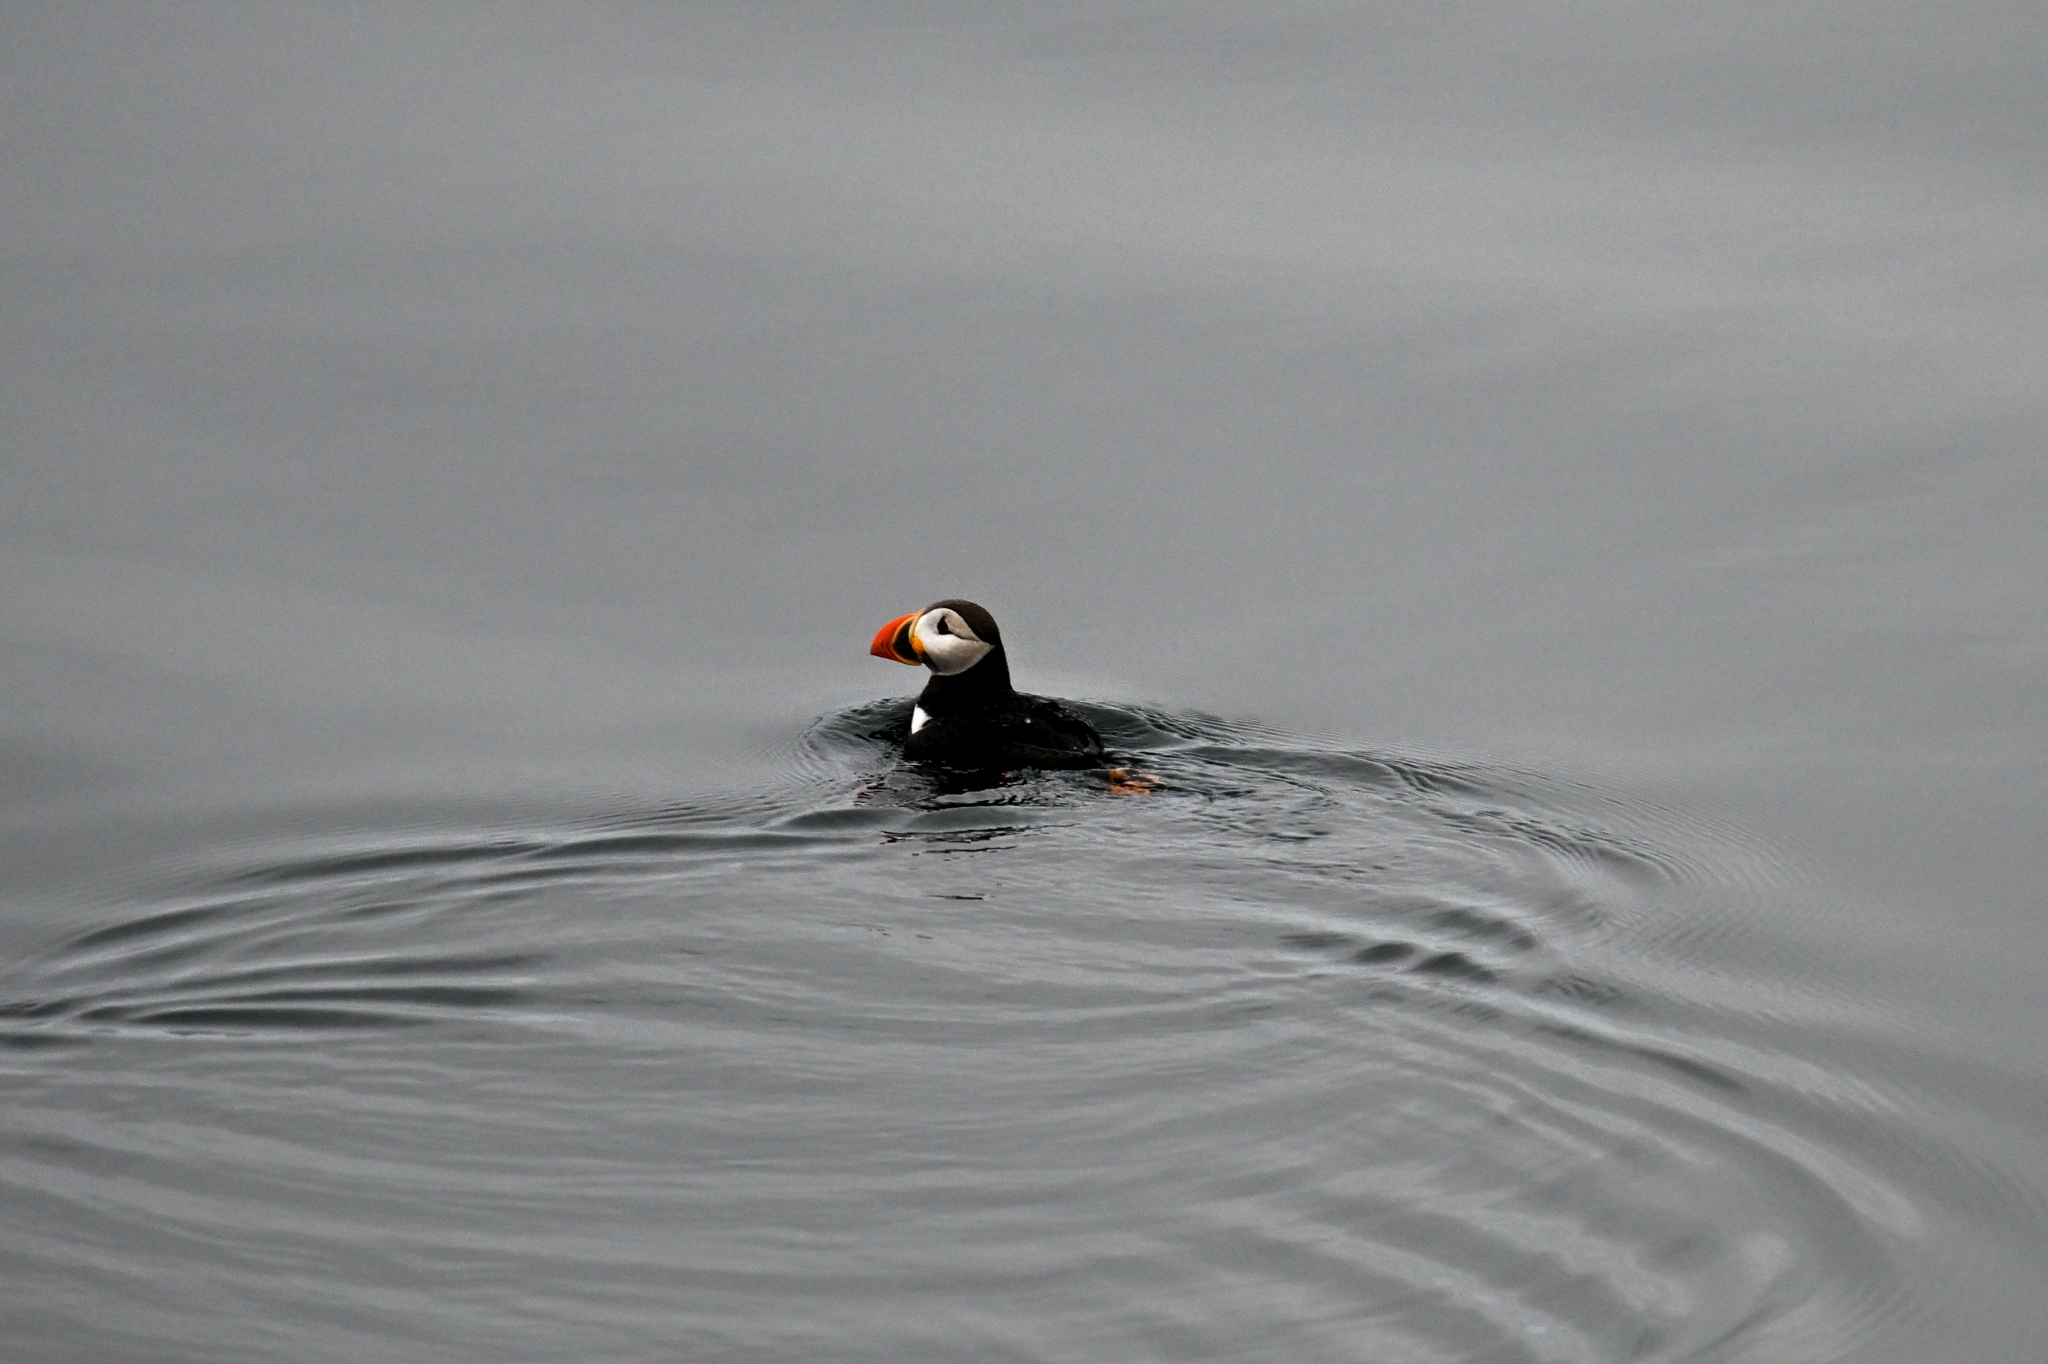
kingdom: Animalia
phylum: Chordata
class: Aves
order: Charadriiformes
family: Alcidae
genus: Fratercula
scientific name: Fratercula arctica
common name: Atlantic puffin
